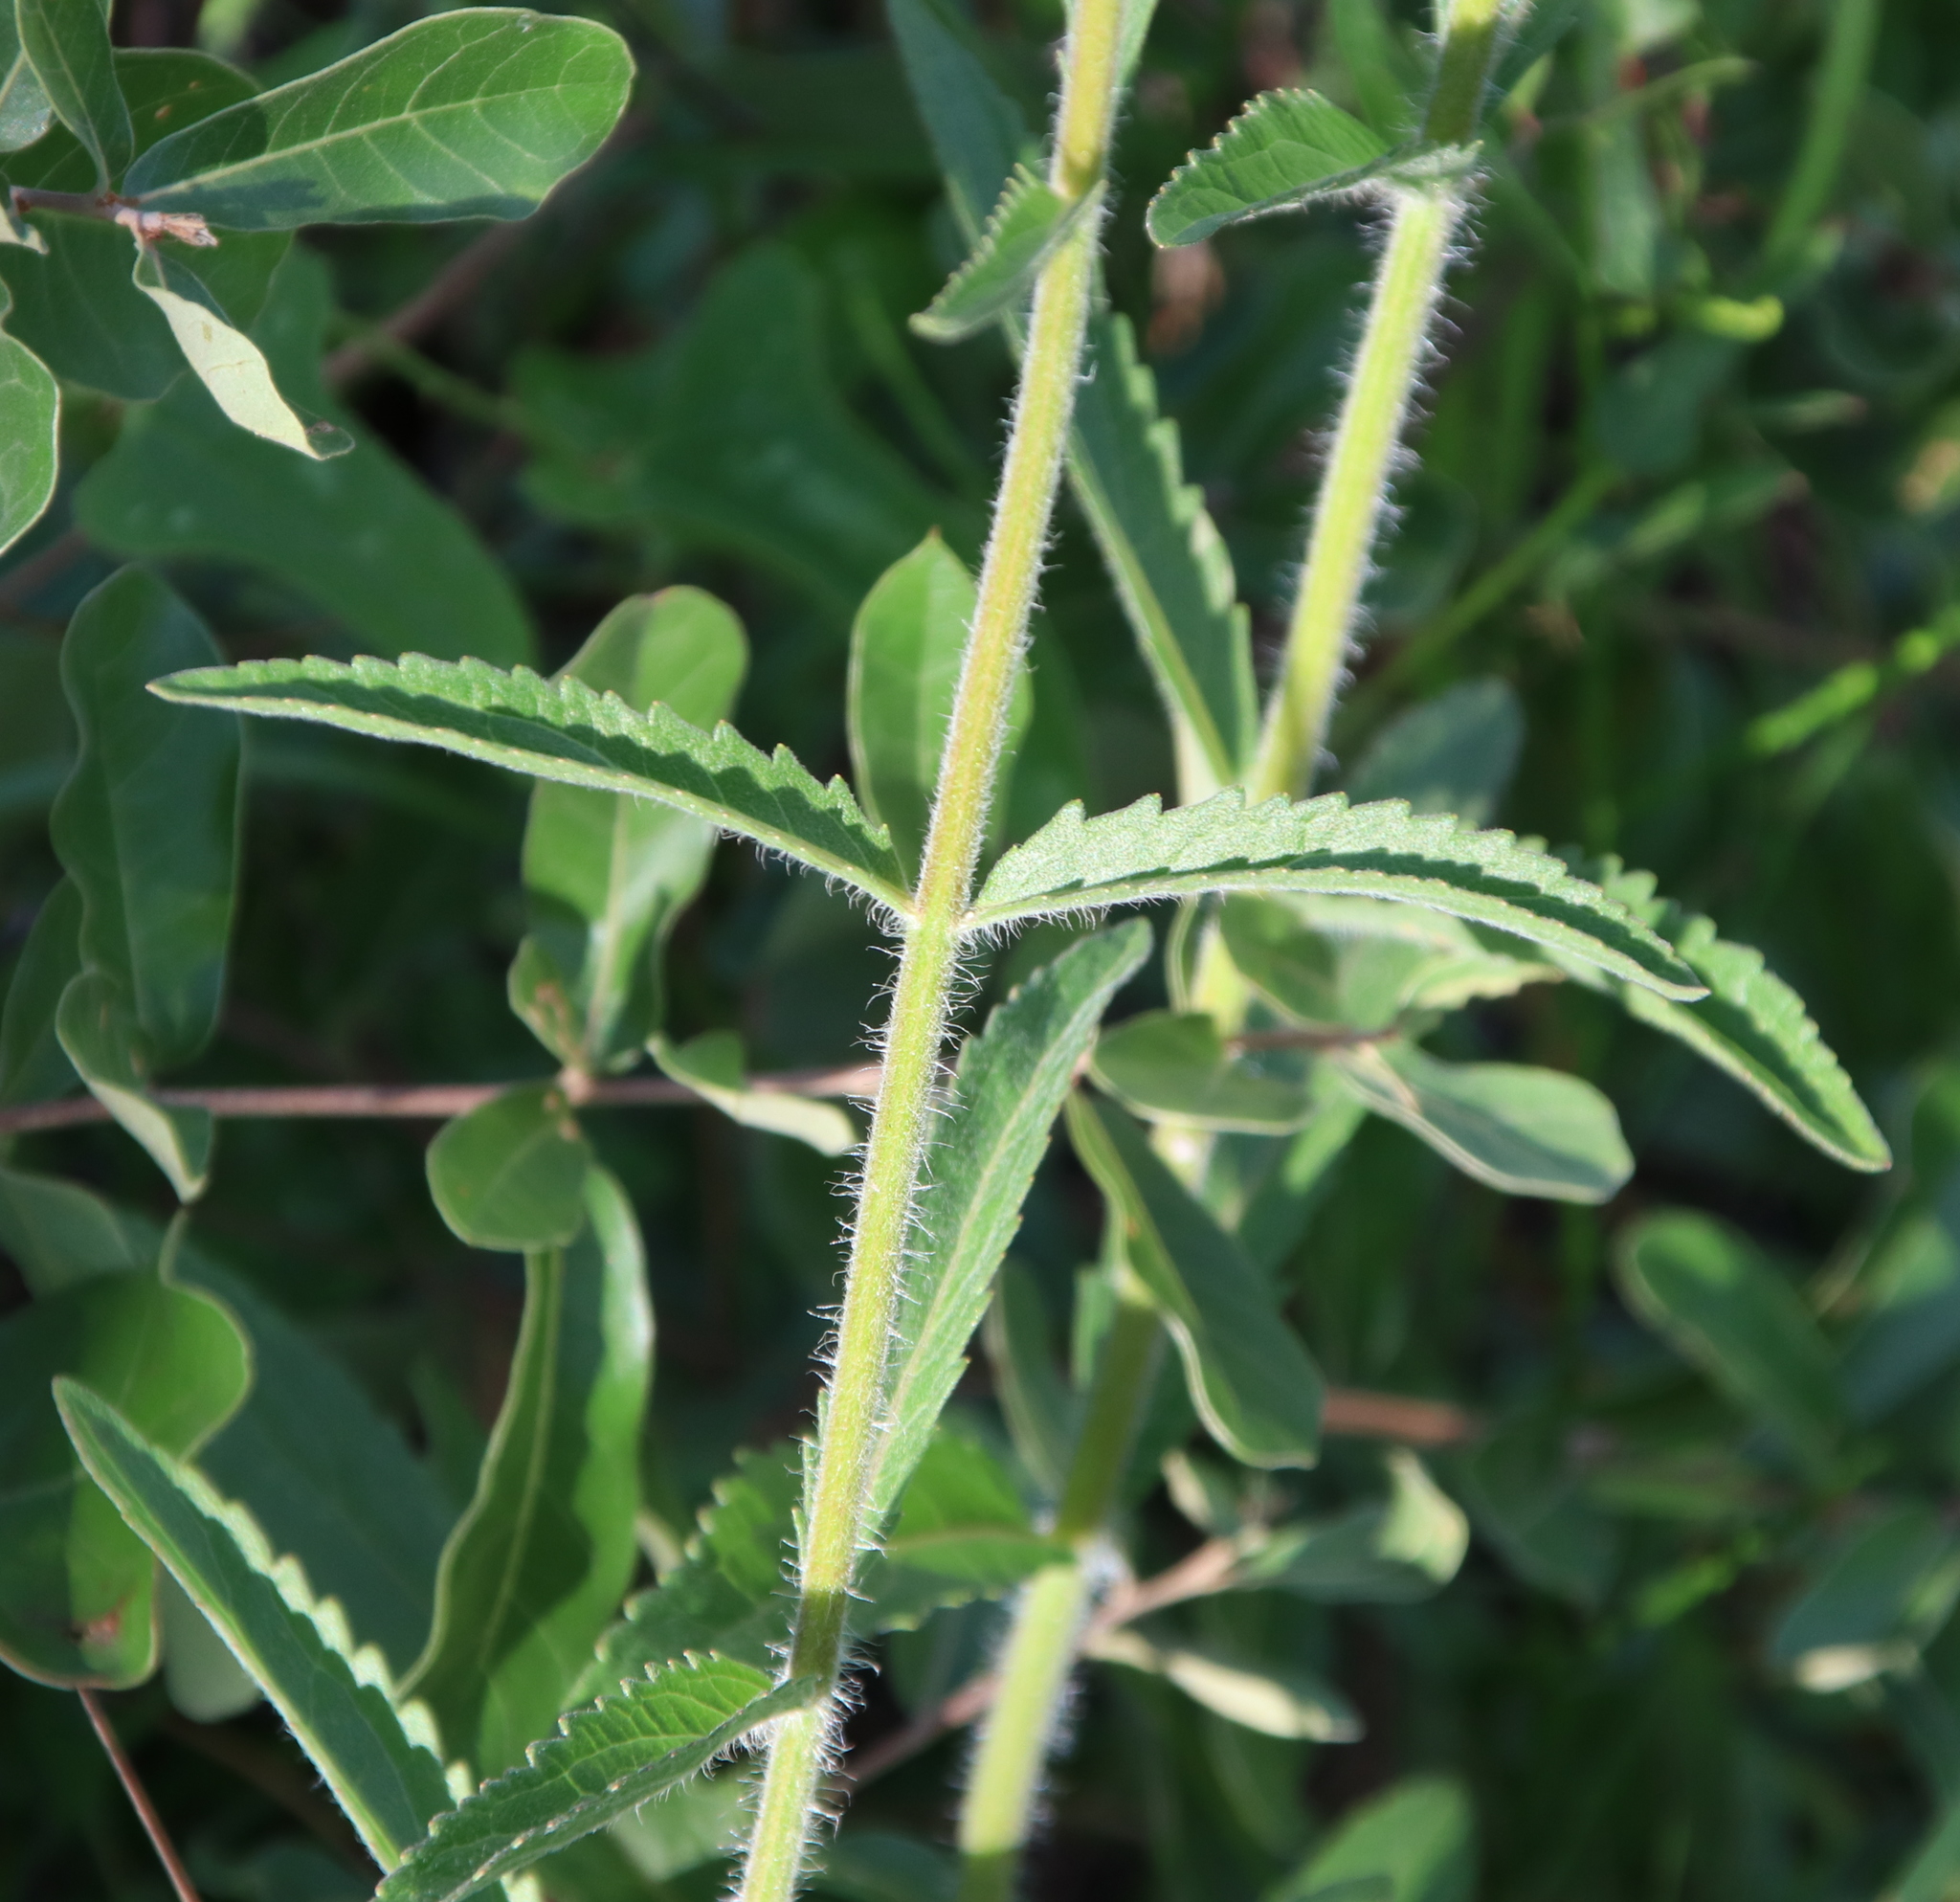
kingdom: Plantae
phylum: Tracheophyta
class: Magnoliopsida
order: Asterales
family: Asteraceae
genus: Eupatorium
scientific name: Eupatorium album
